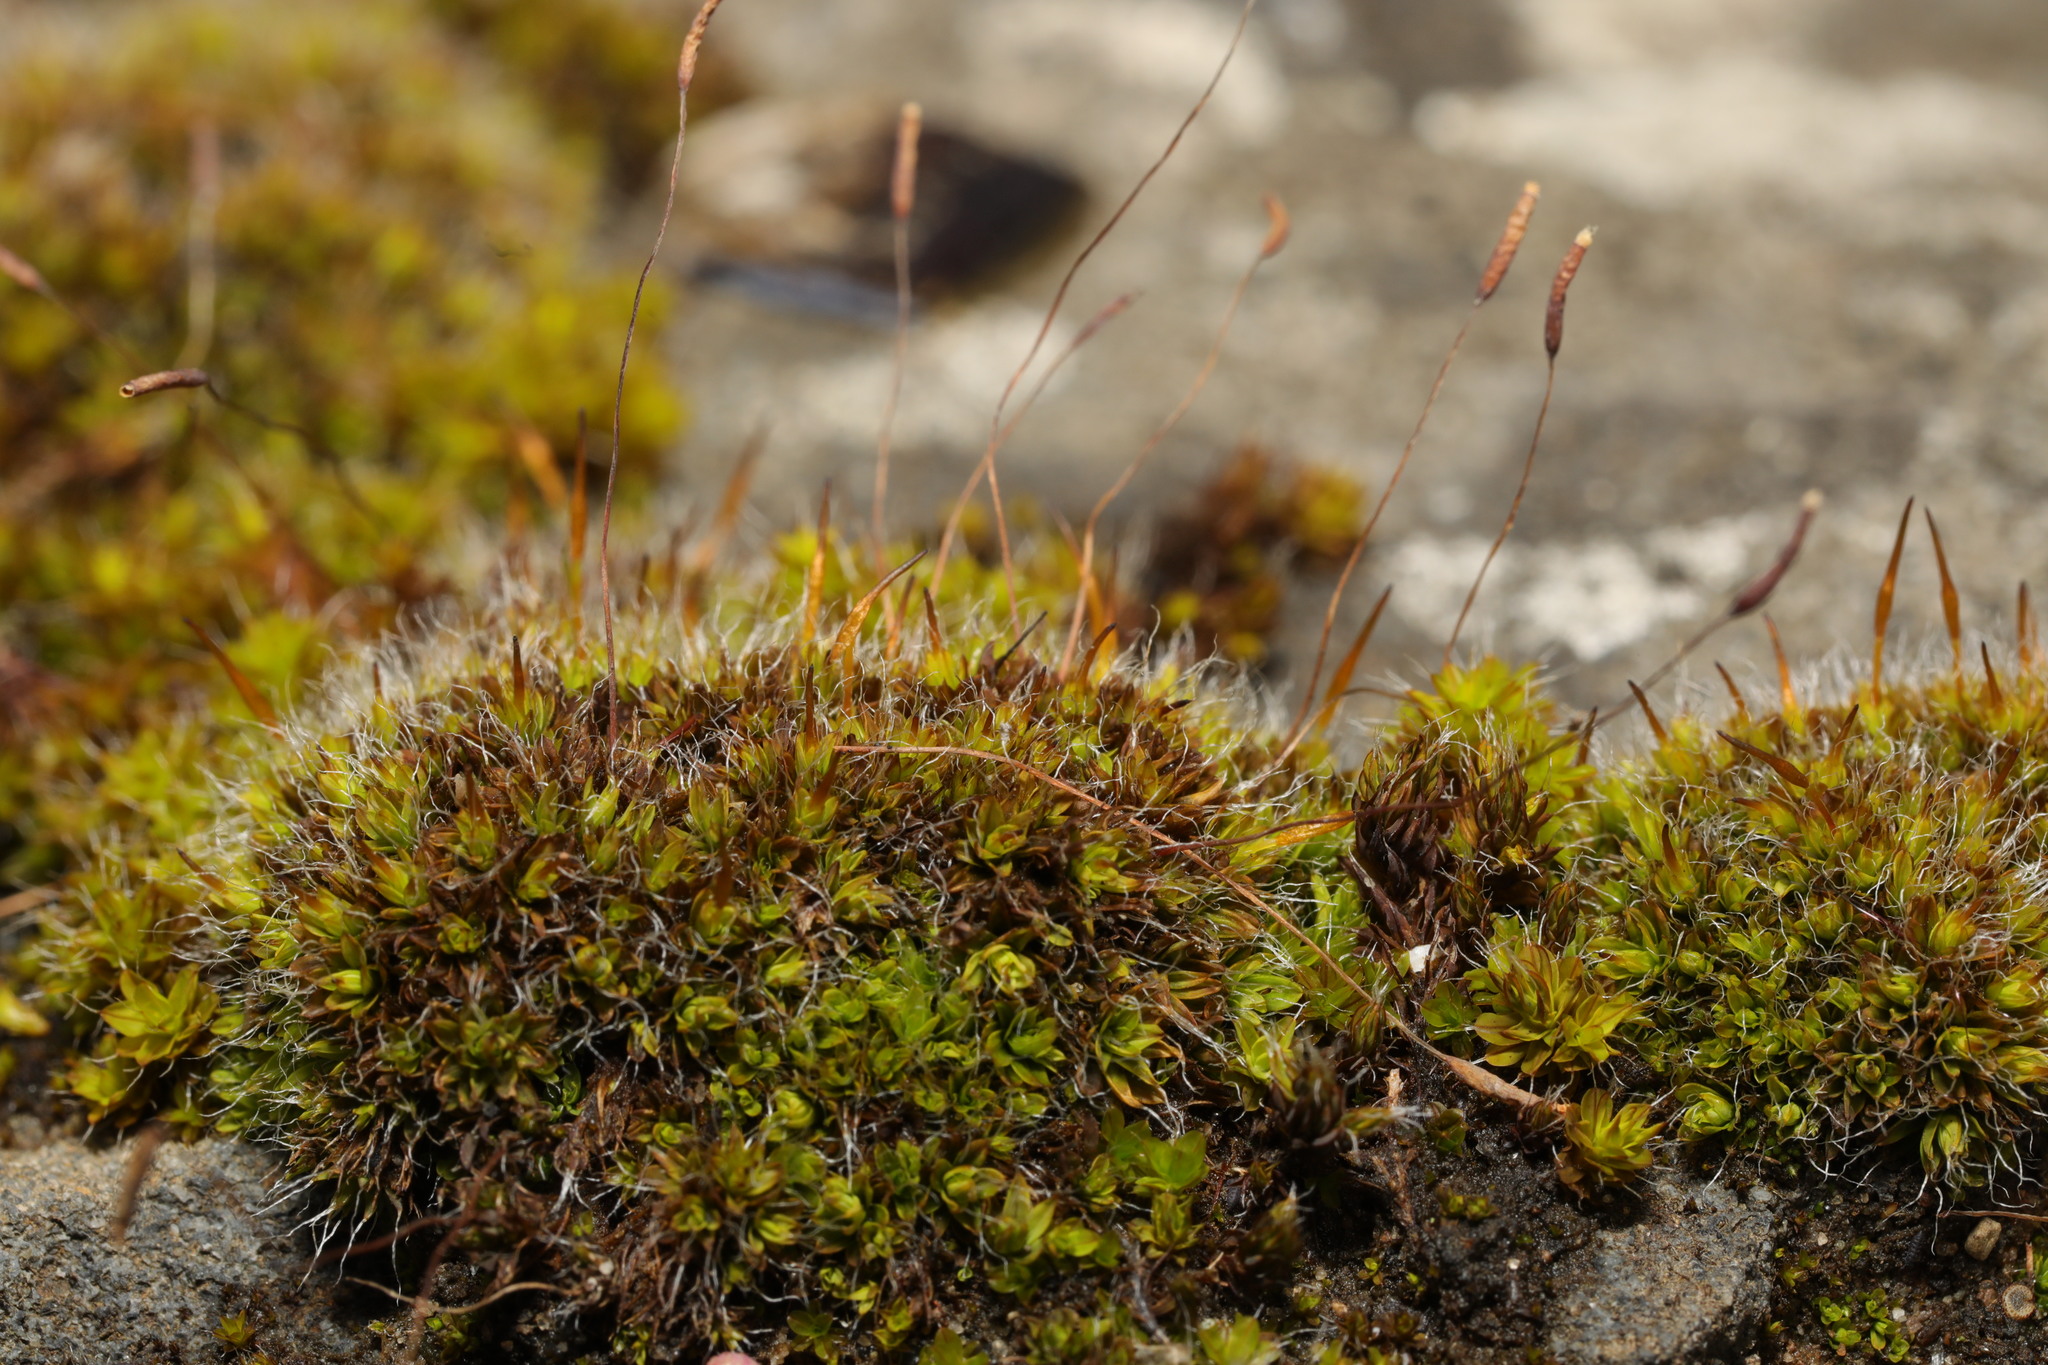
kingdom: Plantae
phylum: Bryophyta
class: Bryopsida
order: Pottiales
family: Pottiaceae
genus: Tortula
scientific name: Tortula muralis
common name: Wall screw-moss
